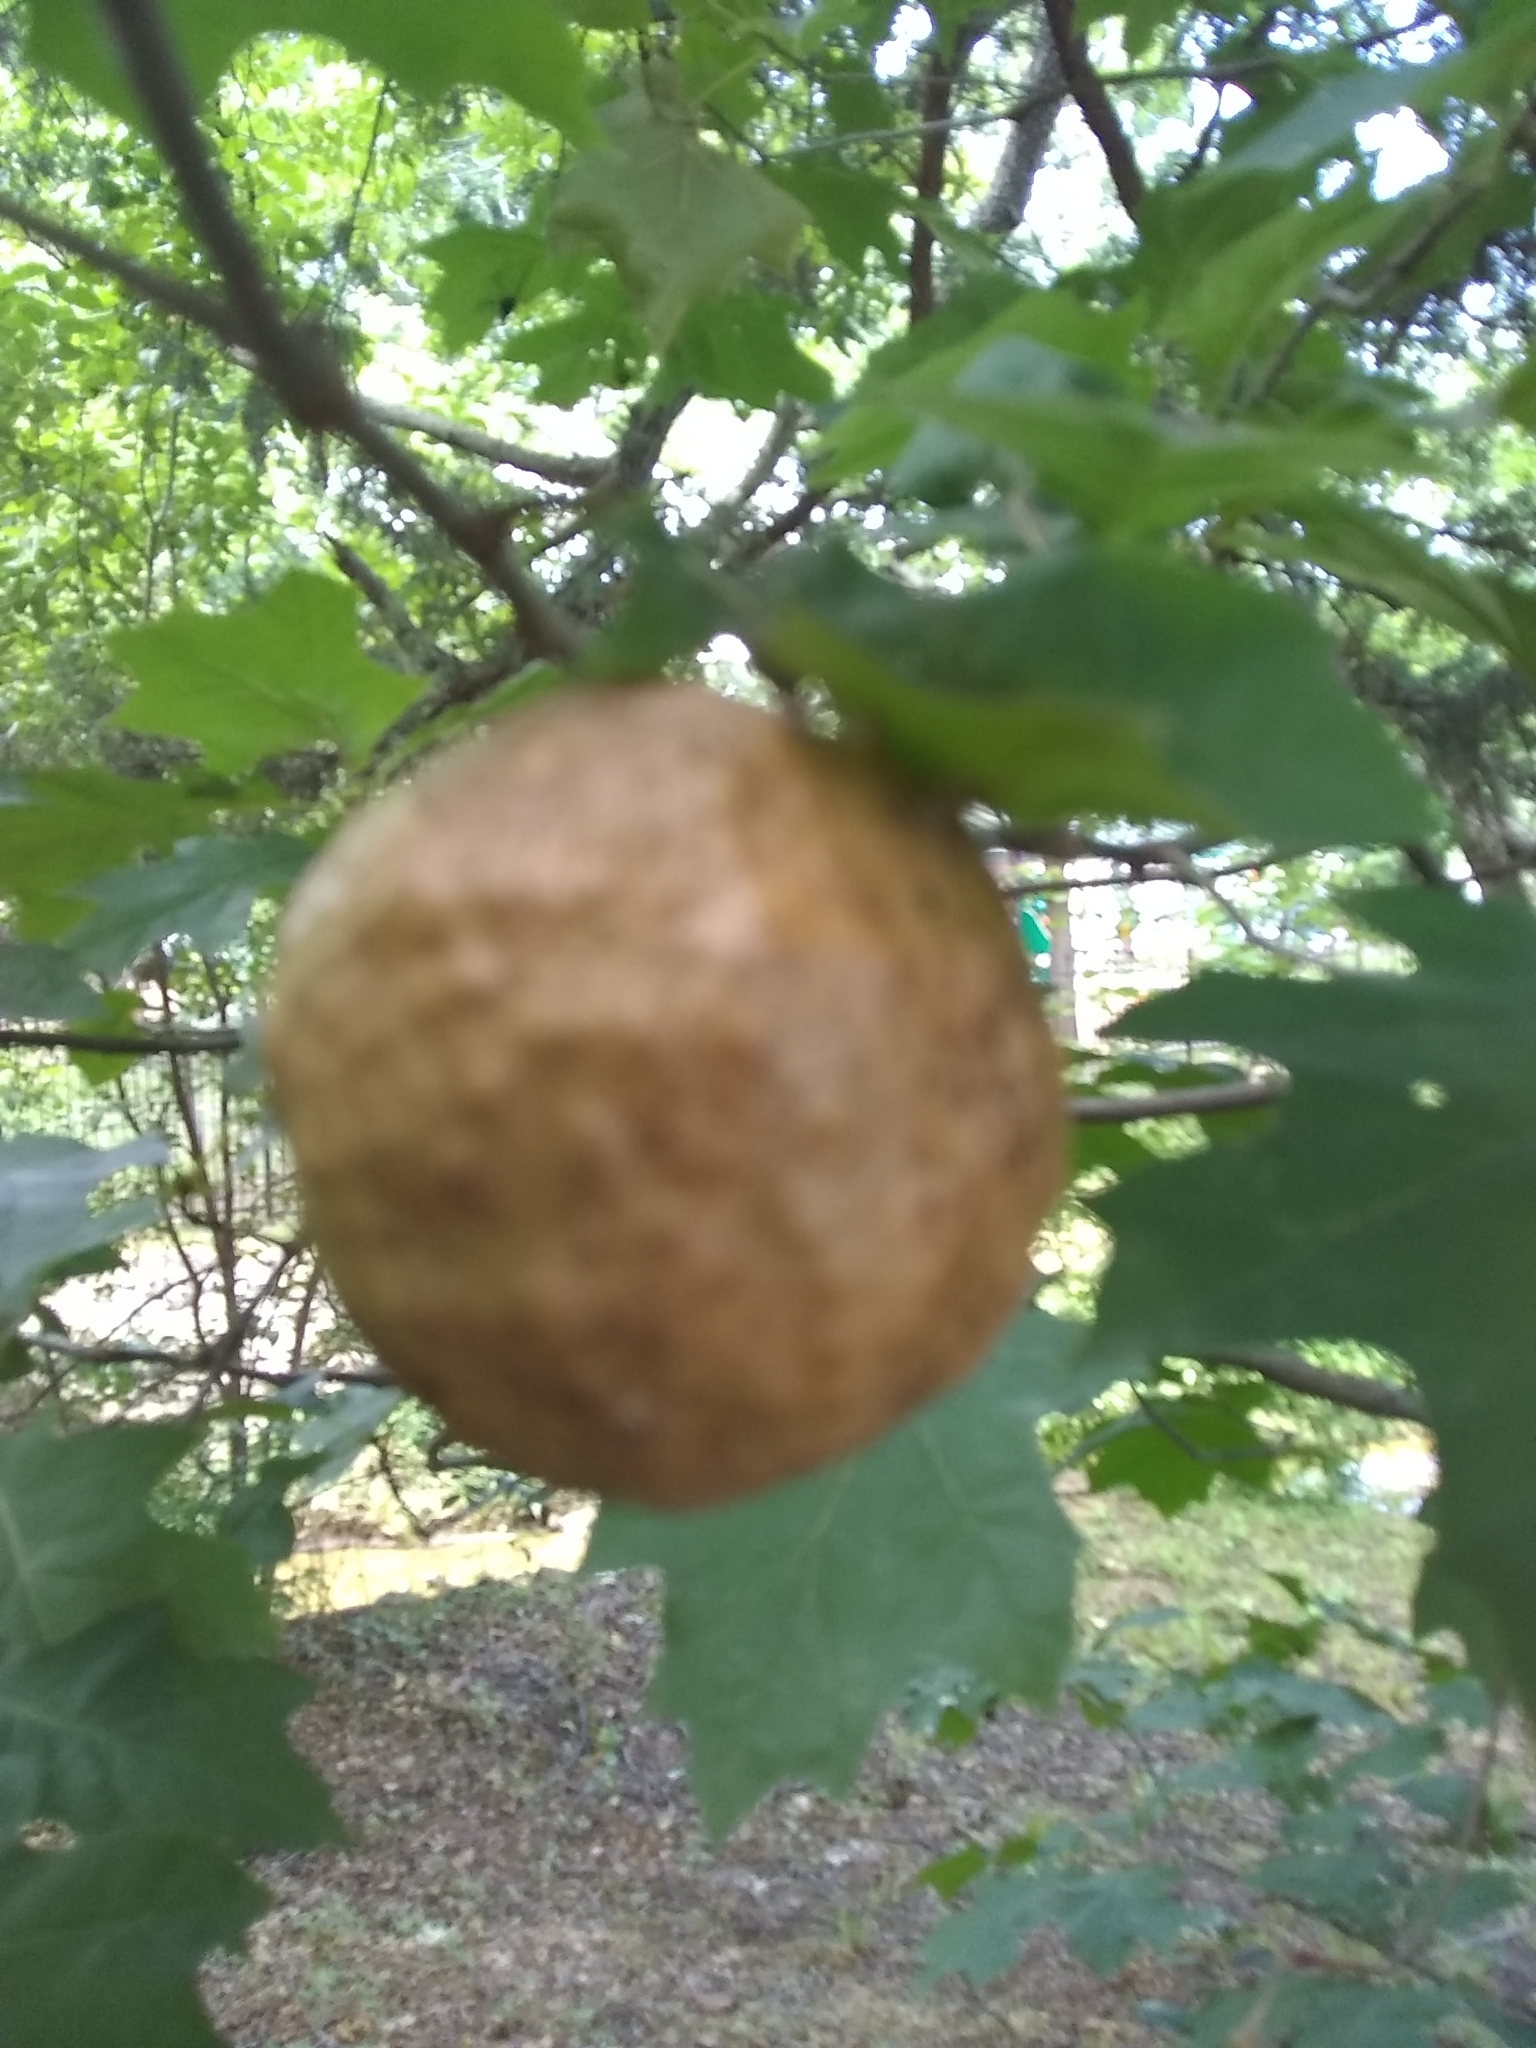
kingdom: Animalia
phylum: Arthropoda
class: Insecta
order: Hymenoptera
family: Cynipidae
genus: Amphibolips
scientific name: Amphibolips
